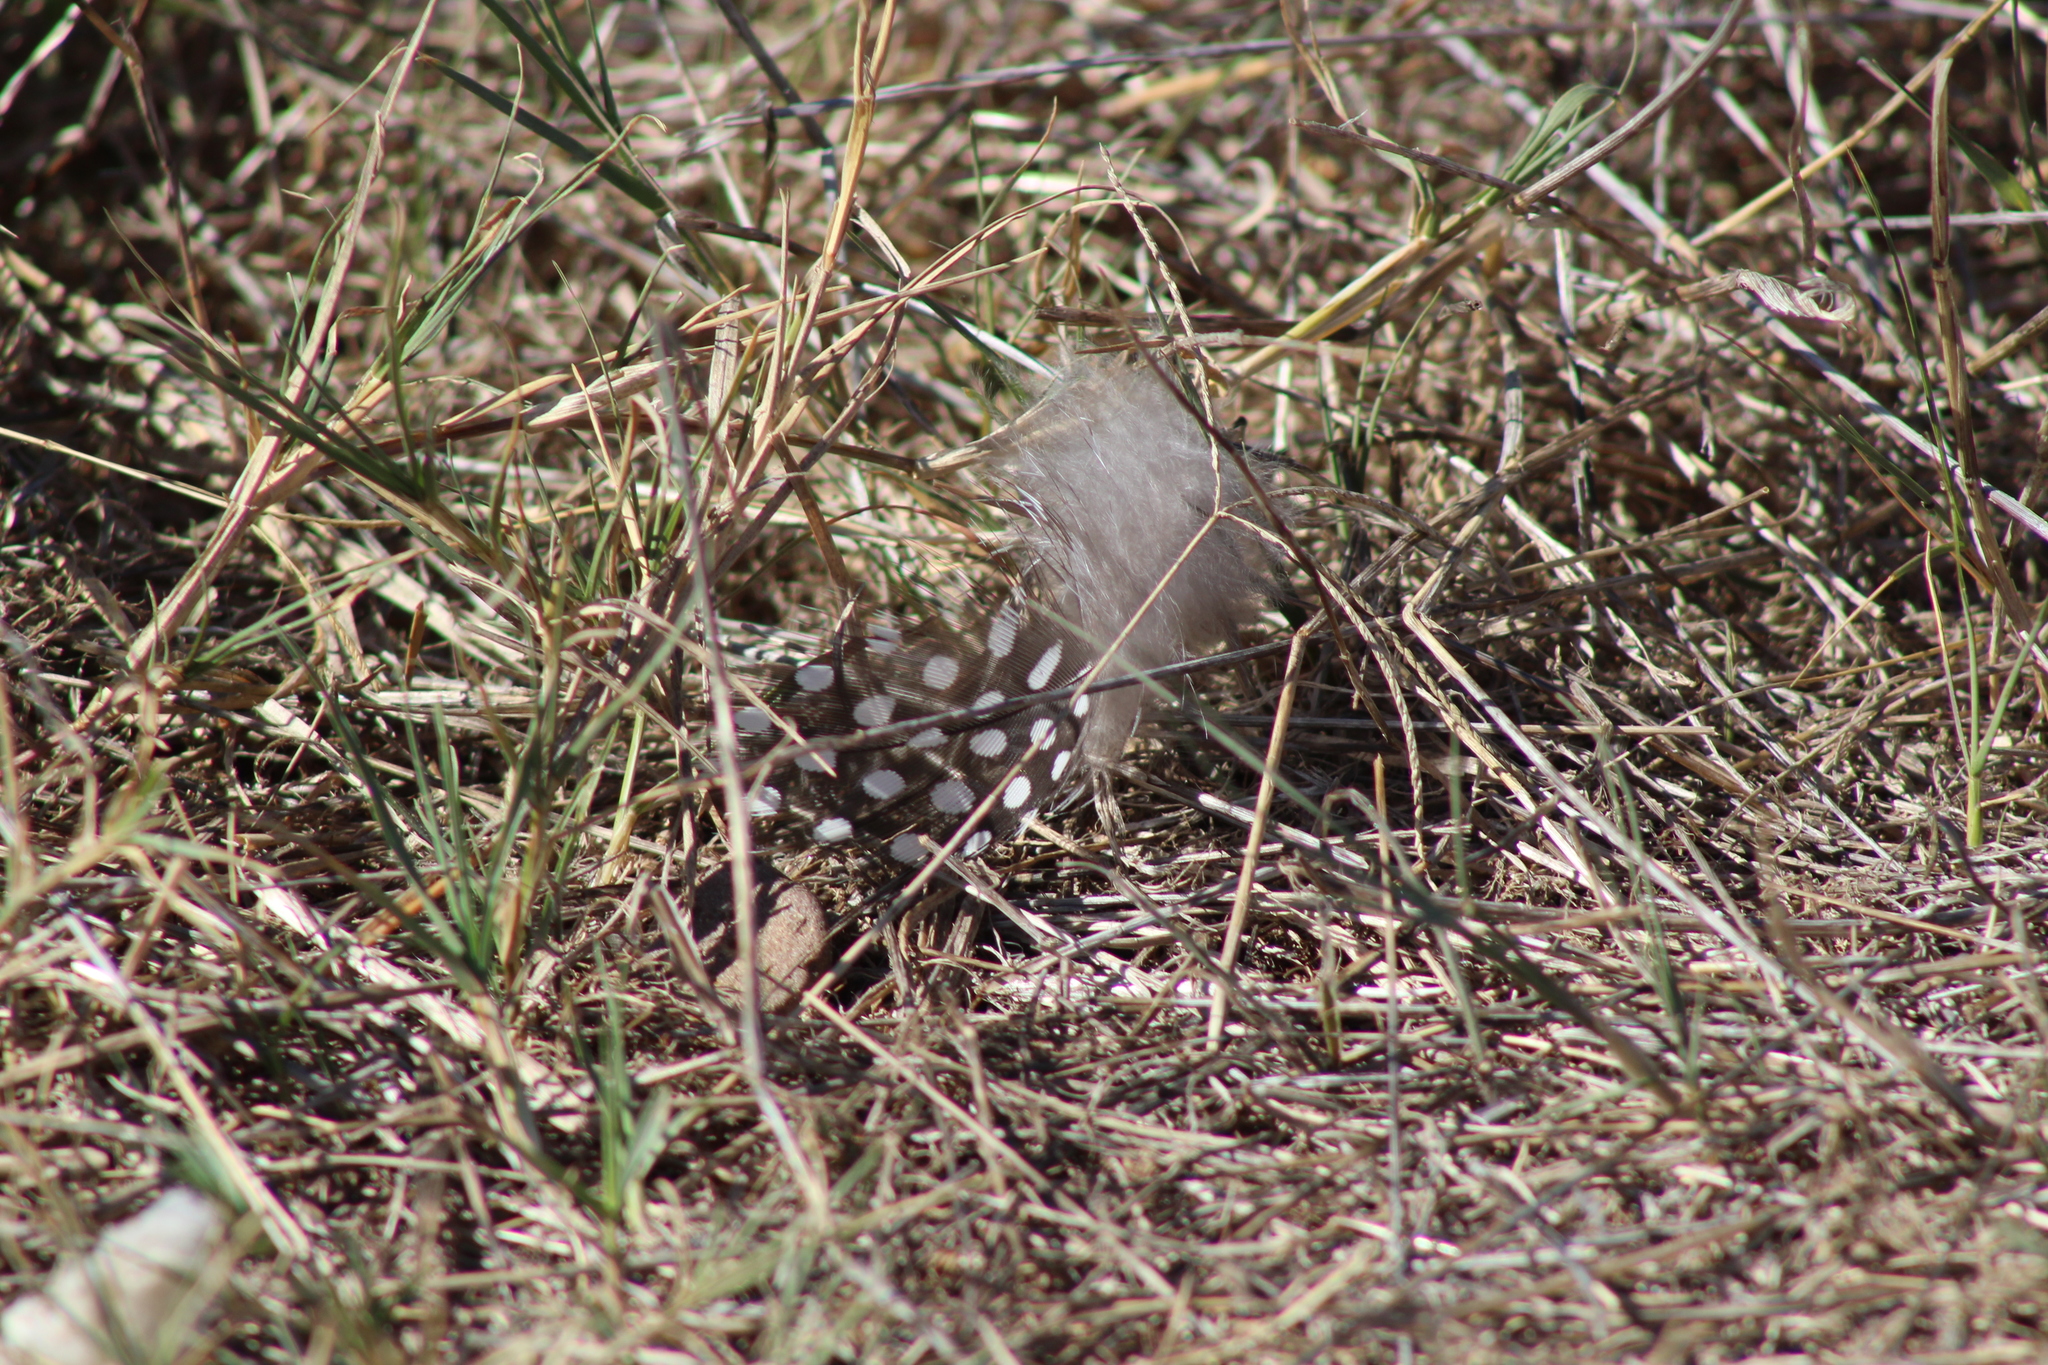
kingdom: Animalia
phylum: Chordata
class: Aves
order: Galliformes
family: Numididae
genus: Numida
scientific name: Numida meleagris
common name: Helmeted guineafowl
